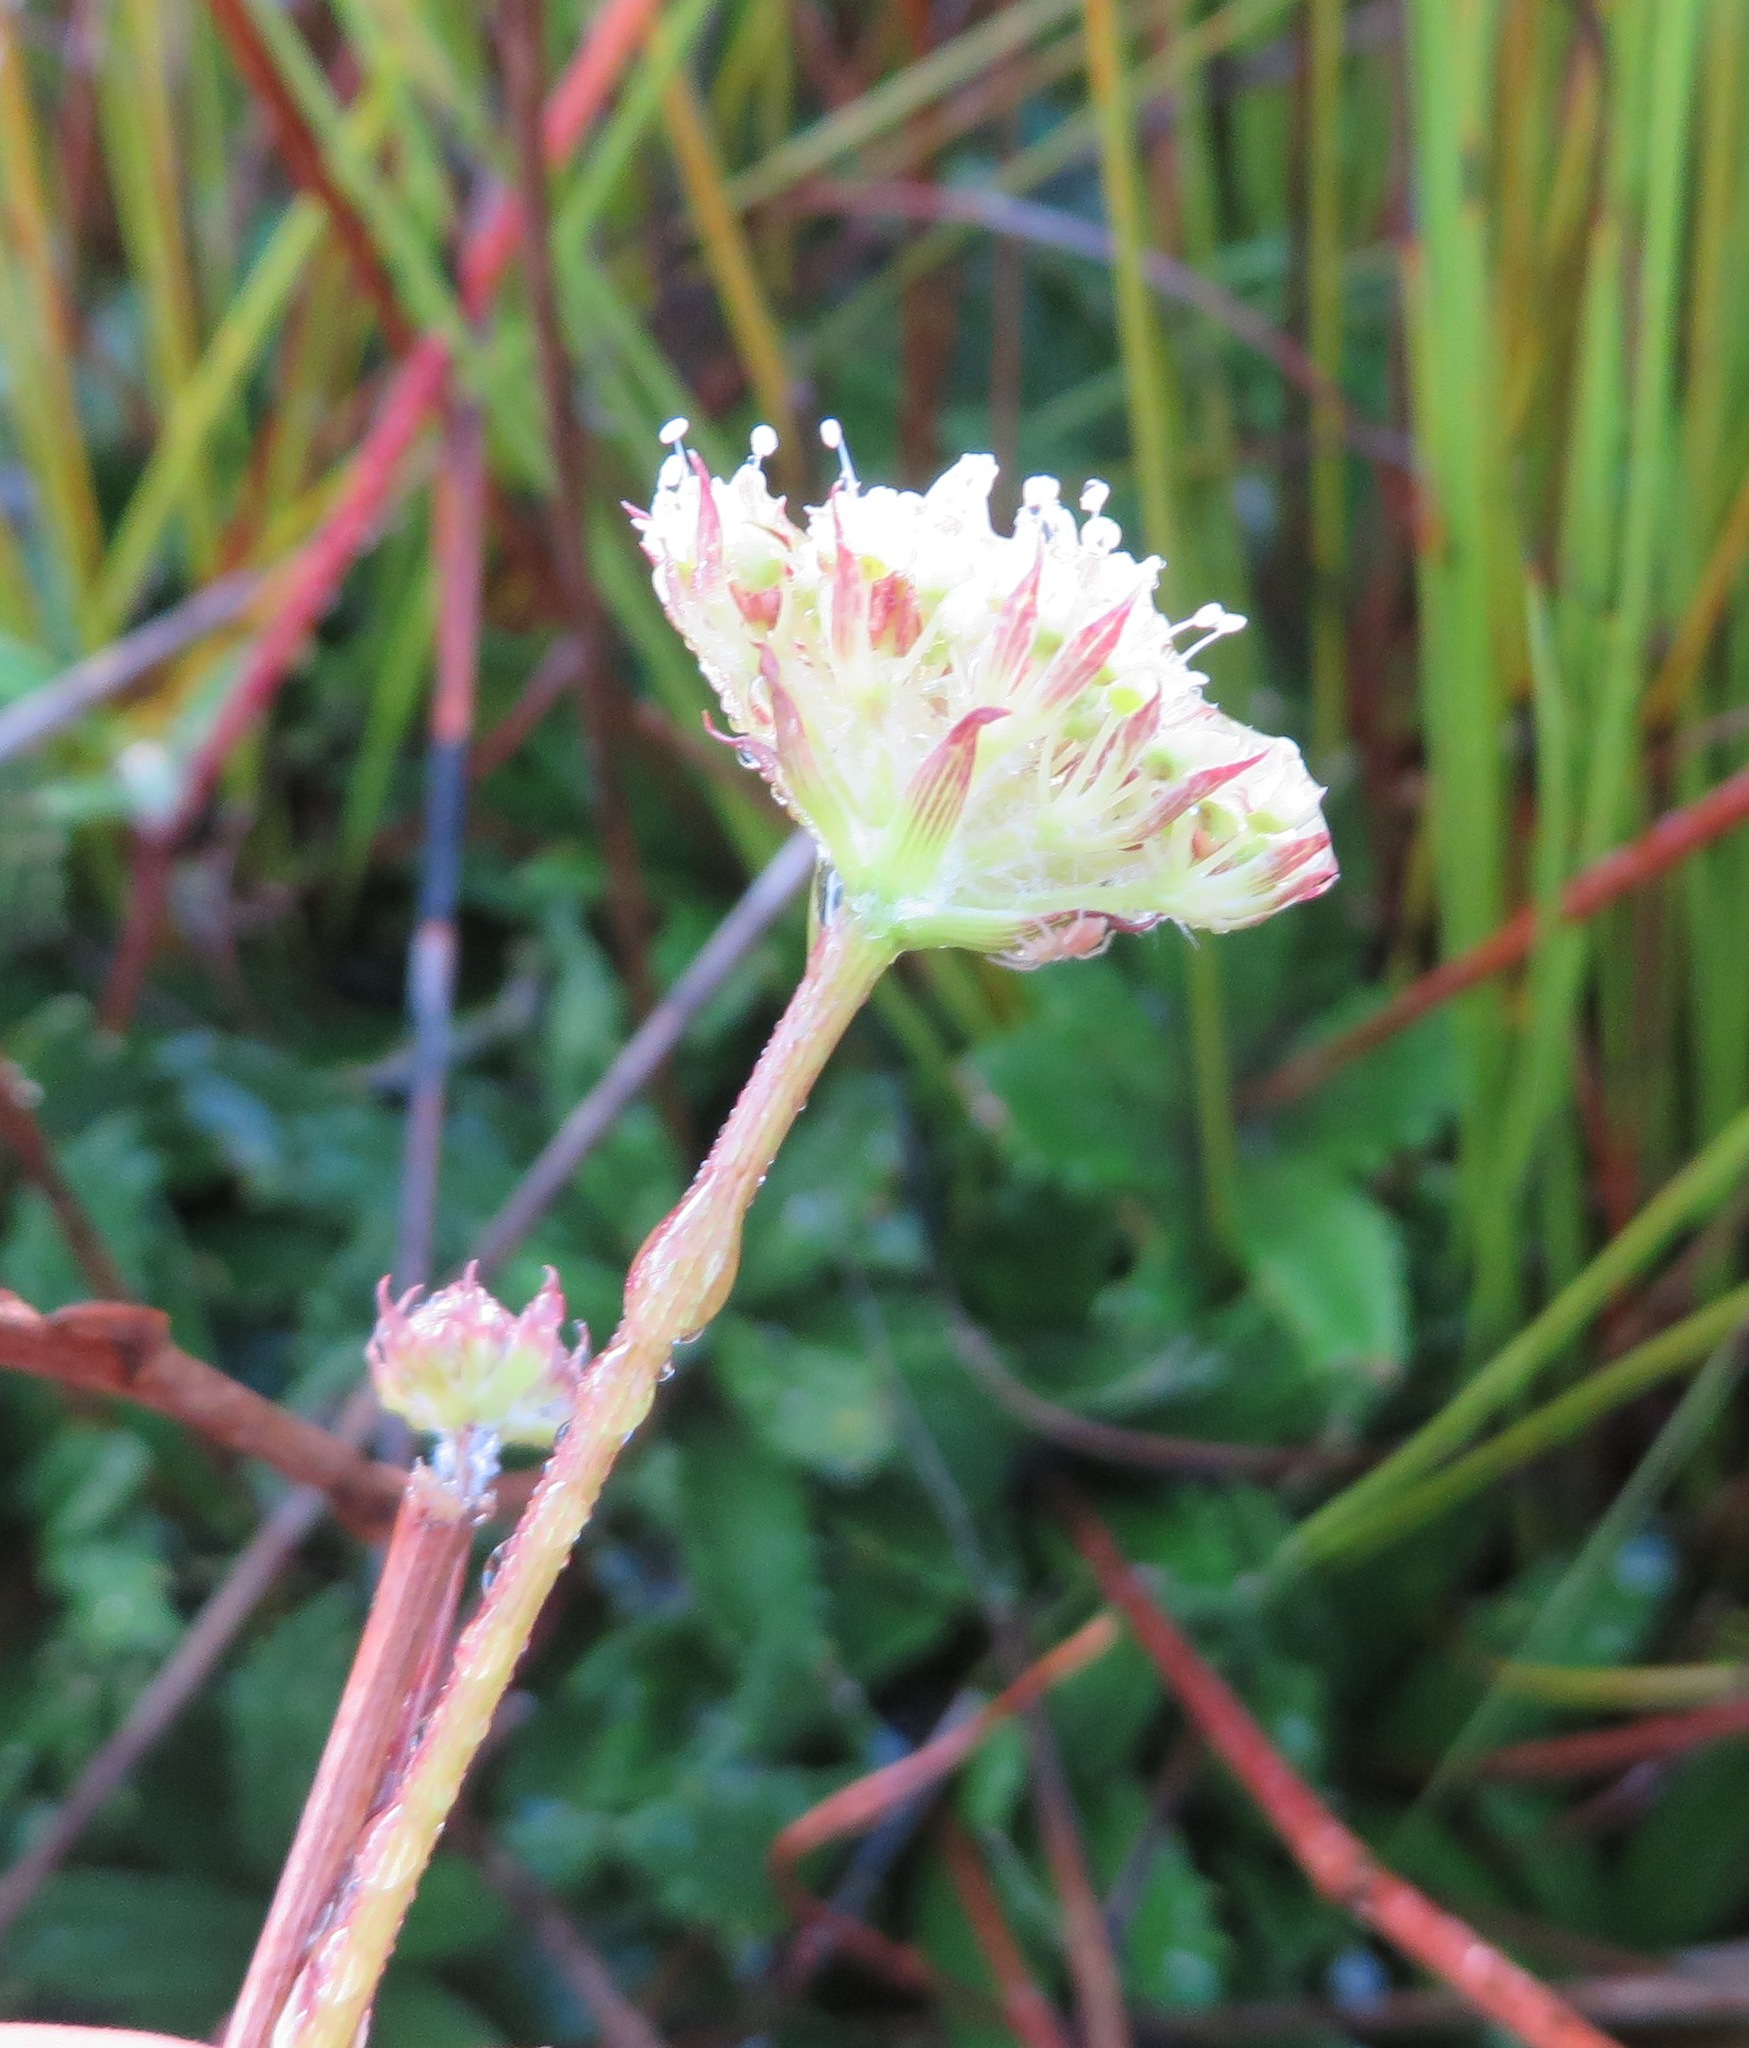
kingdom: Plantae
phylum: Tracheophyta
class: Magnoliopsida
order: Apiales
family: Apiaceae
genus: Hermas
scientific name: Hermas quinquedentata
